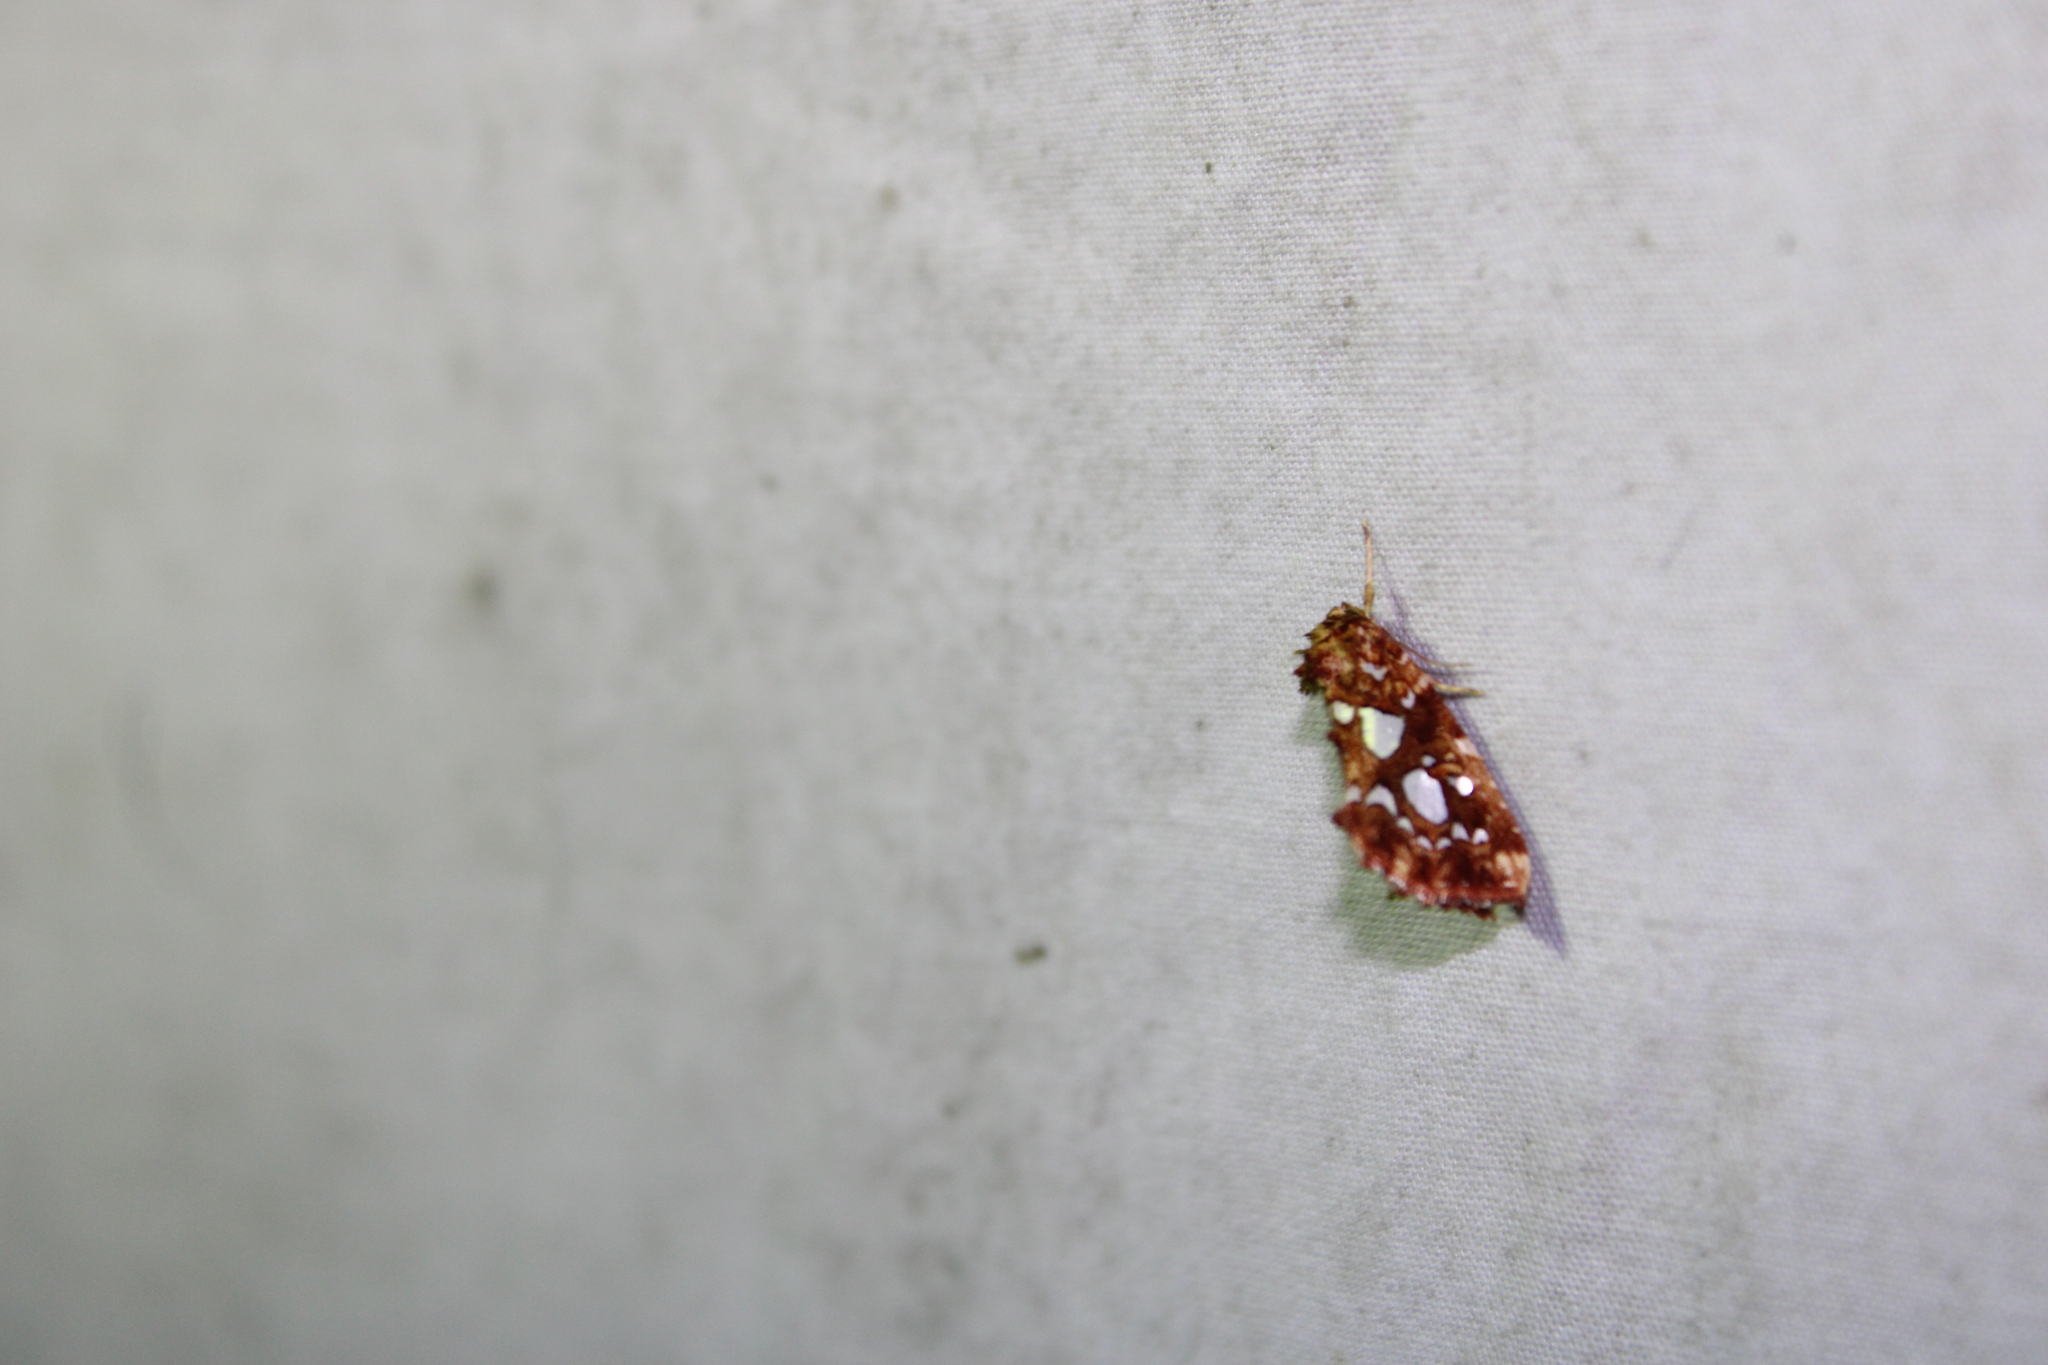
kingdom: Animalia
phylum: Arthropoda
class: Insecta
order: Lepidoptera
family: Noctuidae
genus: Callopistria
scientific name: Callopistria cordata
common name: Silver-spotted fern moth
